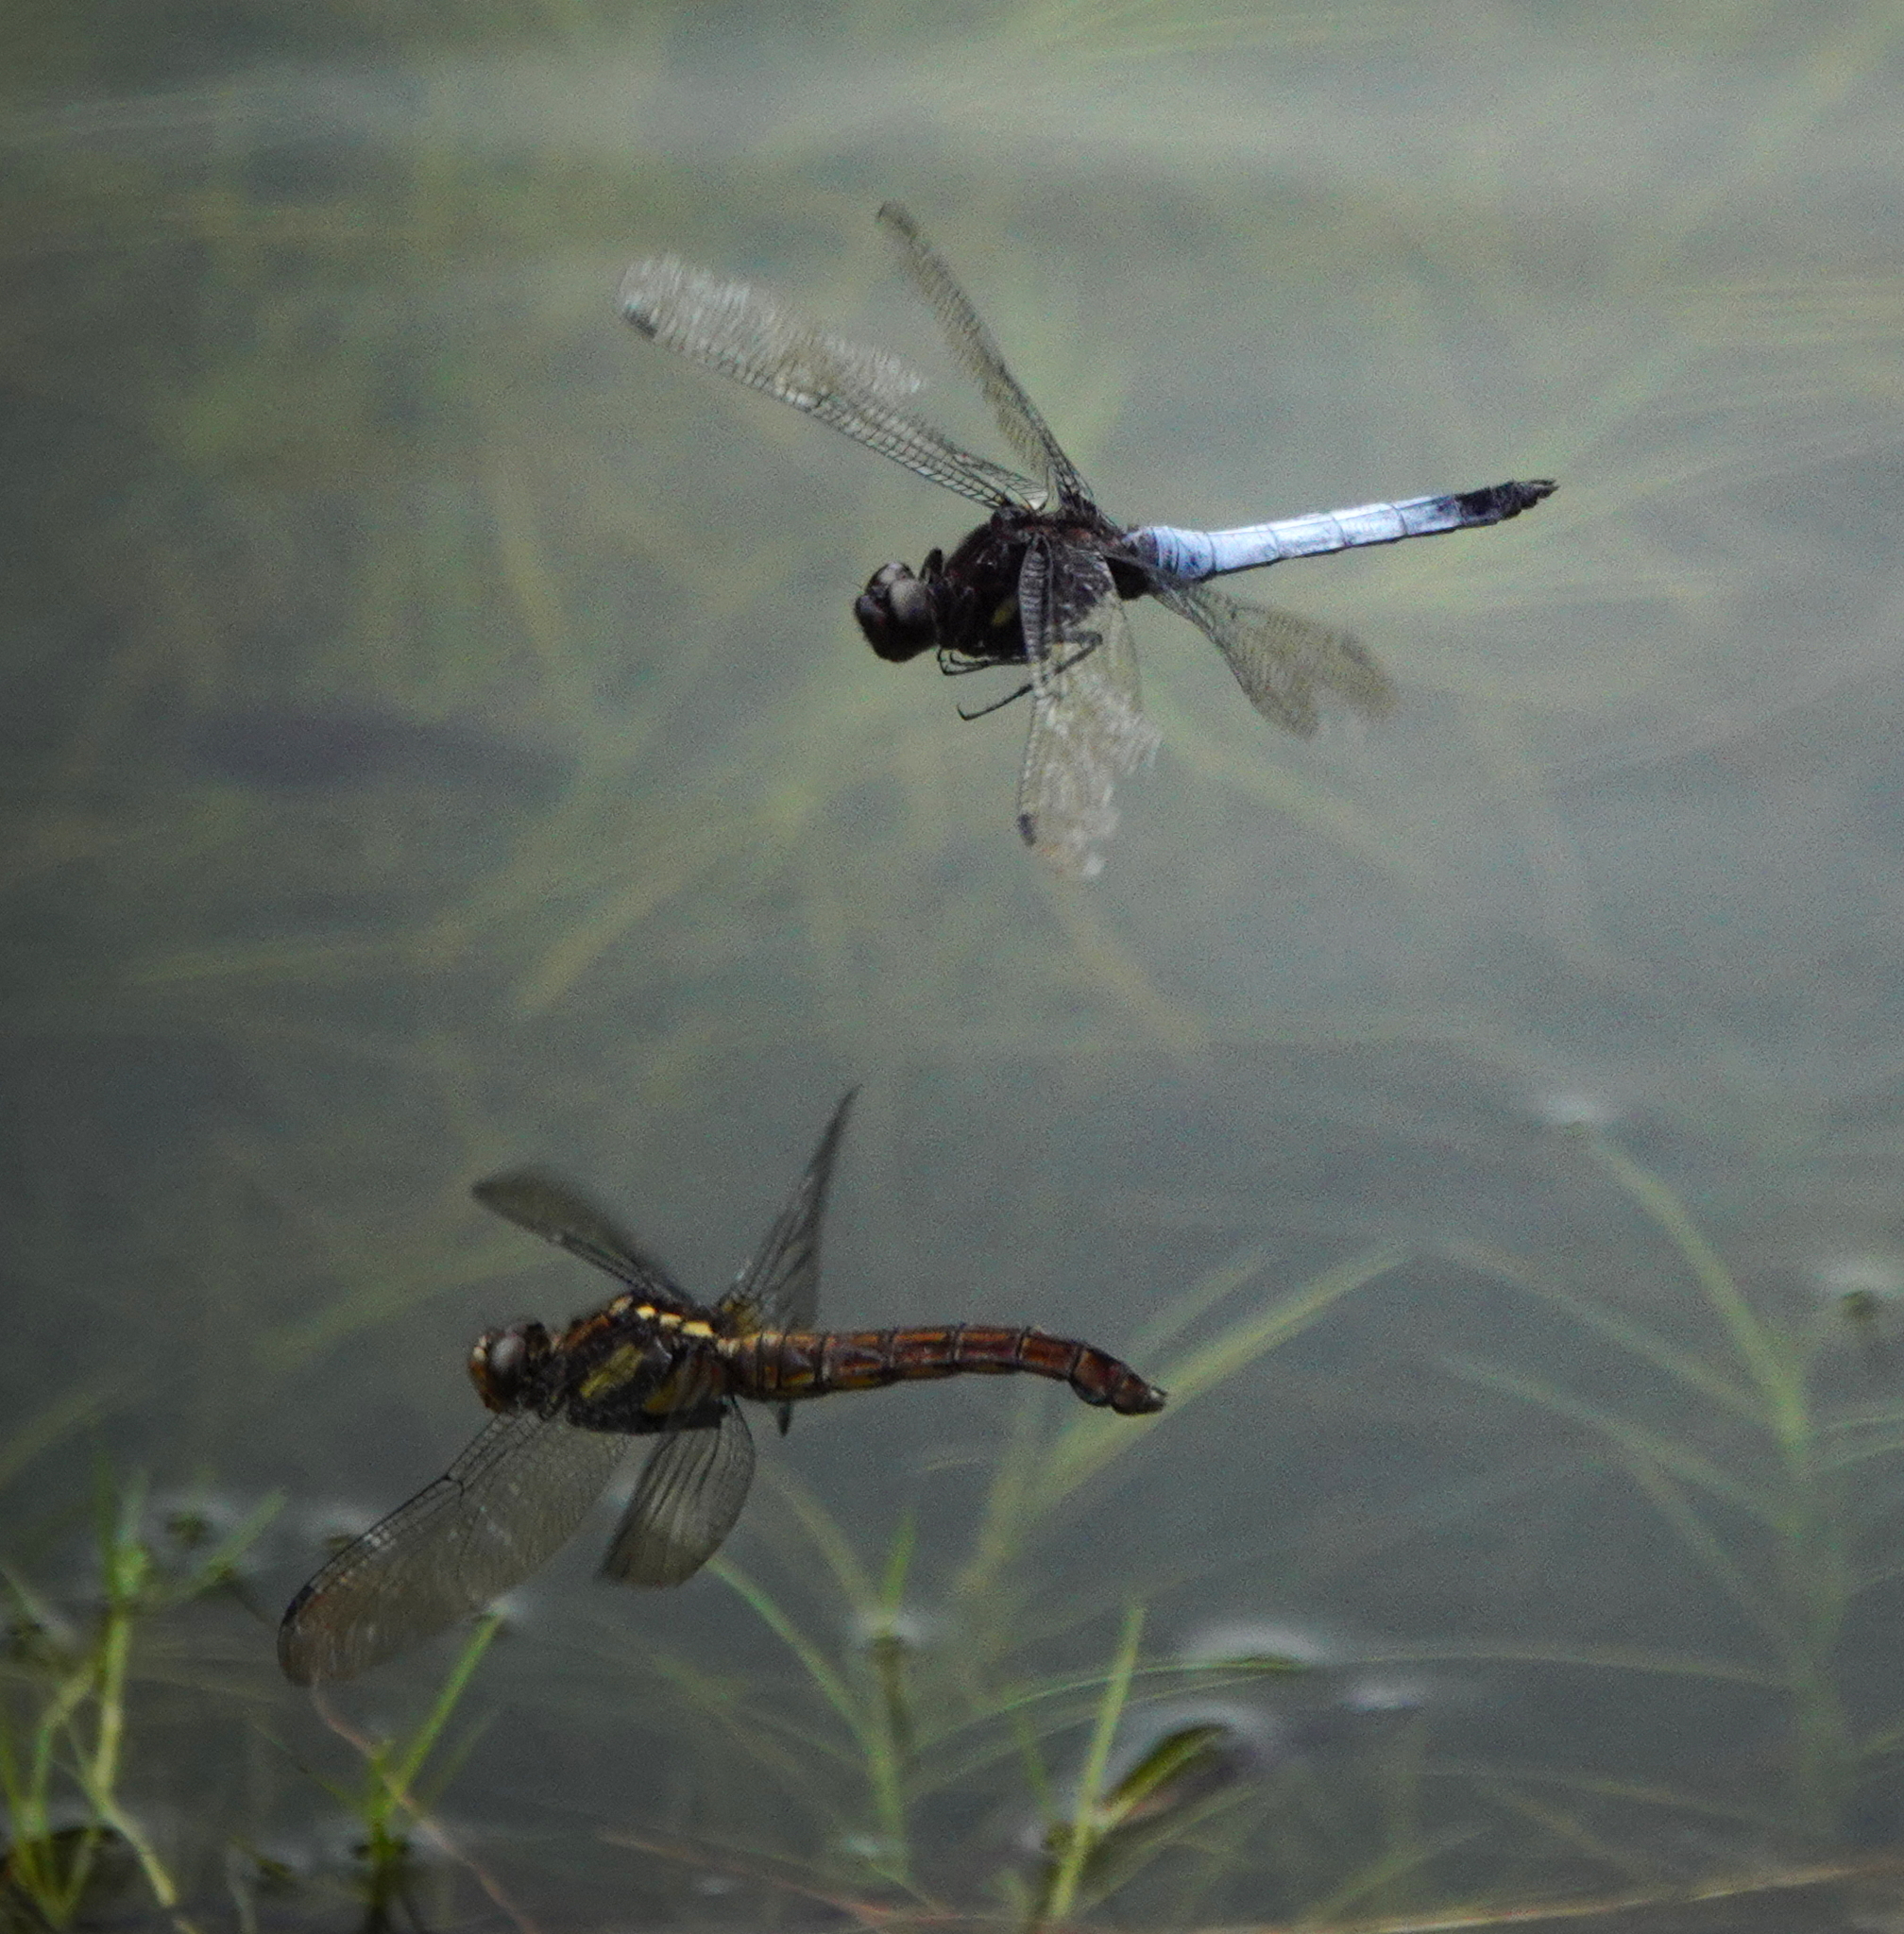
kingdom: Animalia
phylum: Arthropoda
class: Insecta
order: Odonata
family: Libellulidae
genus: Orthetrum
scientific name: Orthetrum triangulare
